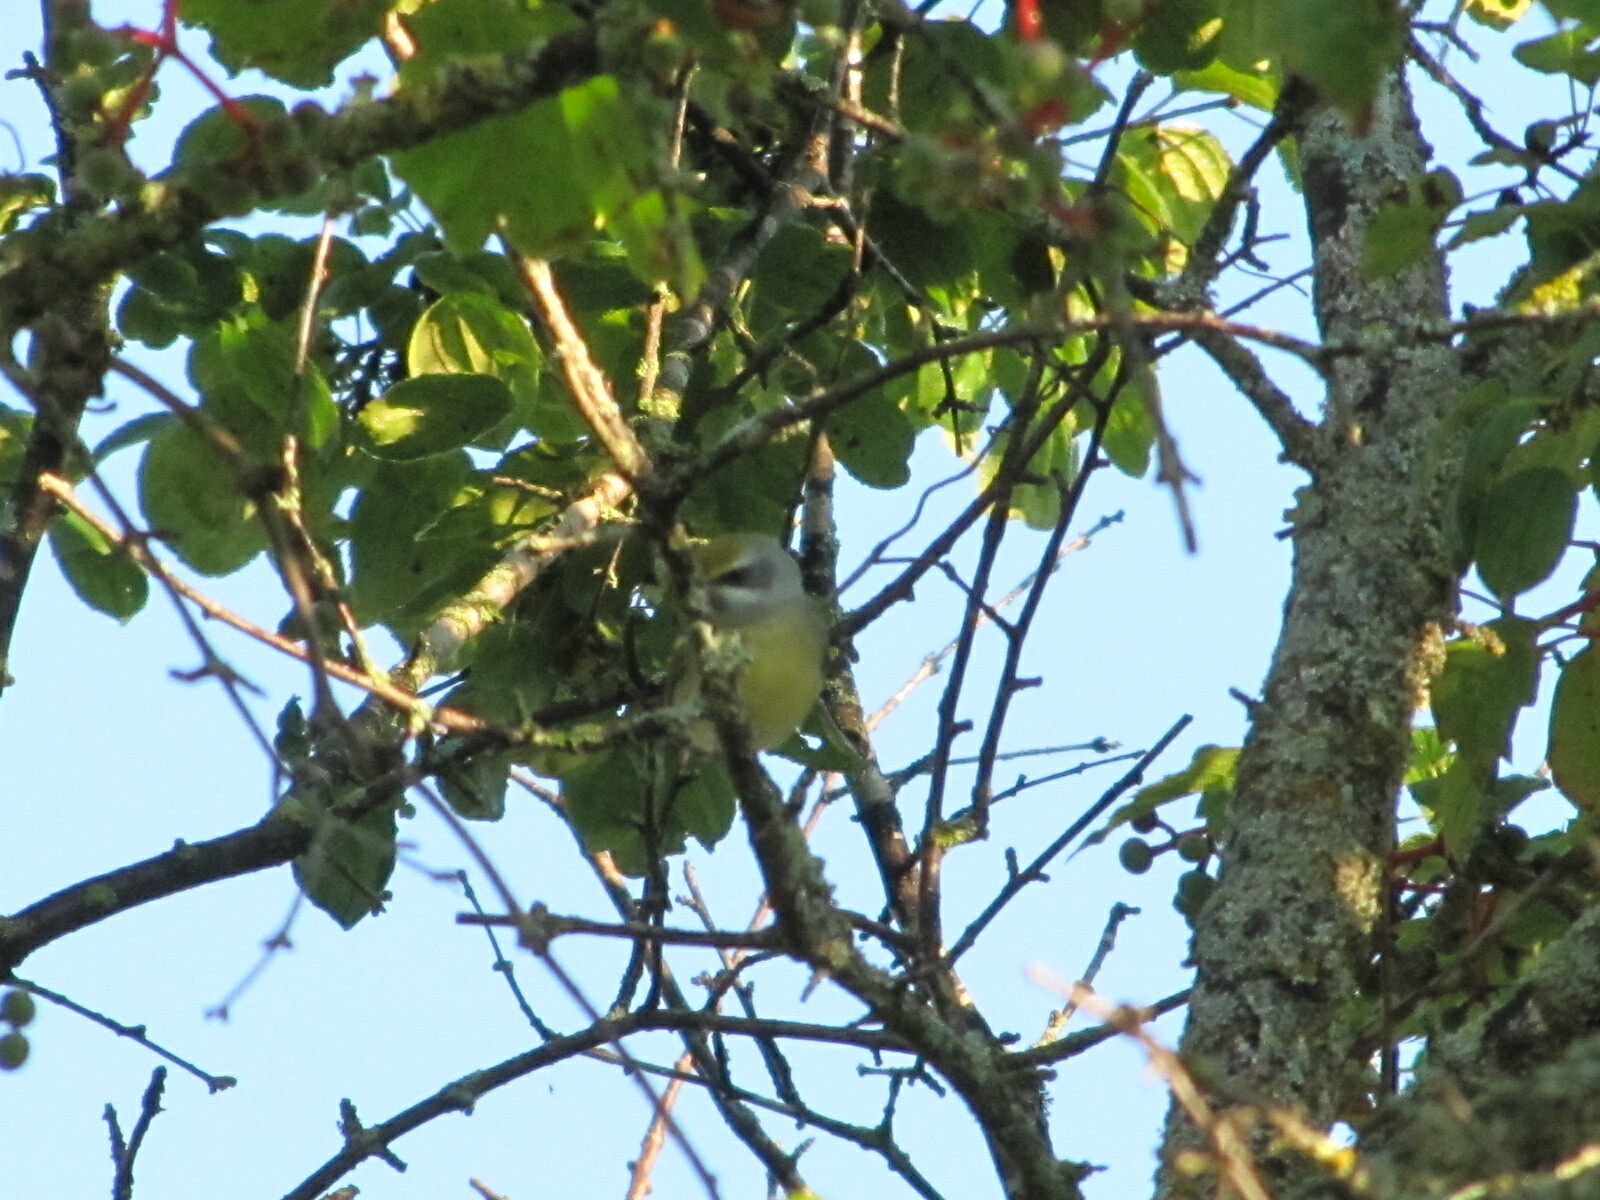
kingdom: Animalia
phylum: Chordata
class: Aves
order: Passeriformes
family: Parulidae
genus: Vermivora
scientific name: Vermivora
